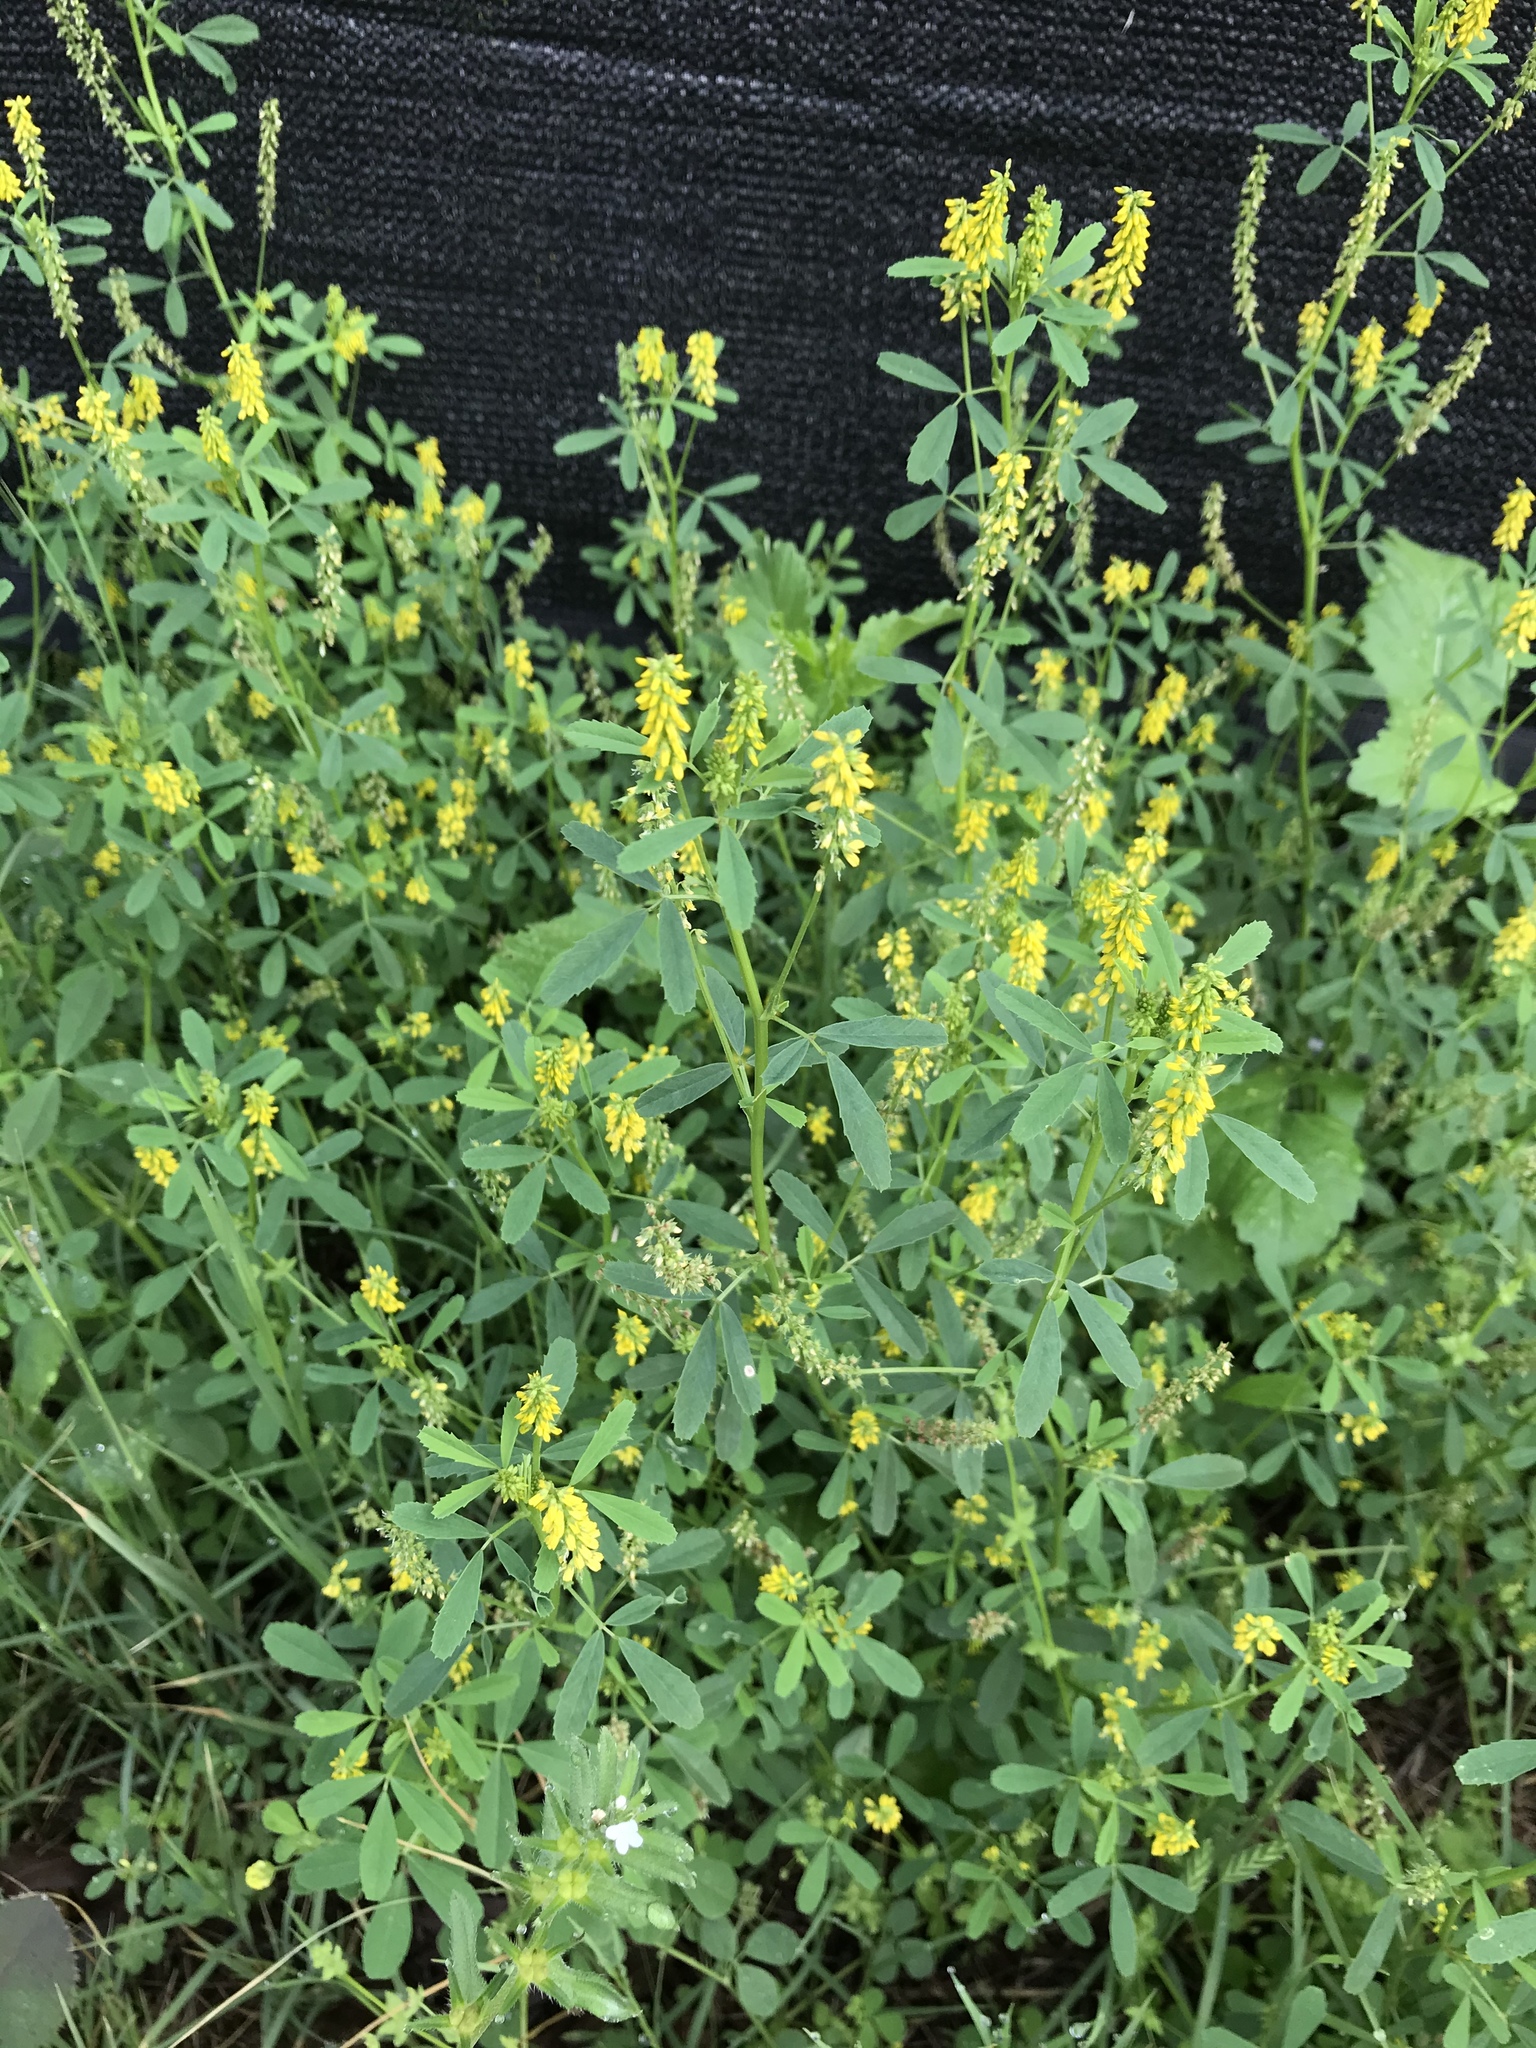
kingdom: Plantae
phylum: Tracheophyta
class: Magnoliopsida
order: Fabales
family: Fabaceae
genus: Melilotus
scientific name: Melilotus indicus
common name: Small melilot
